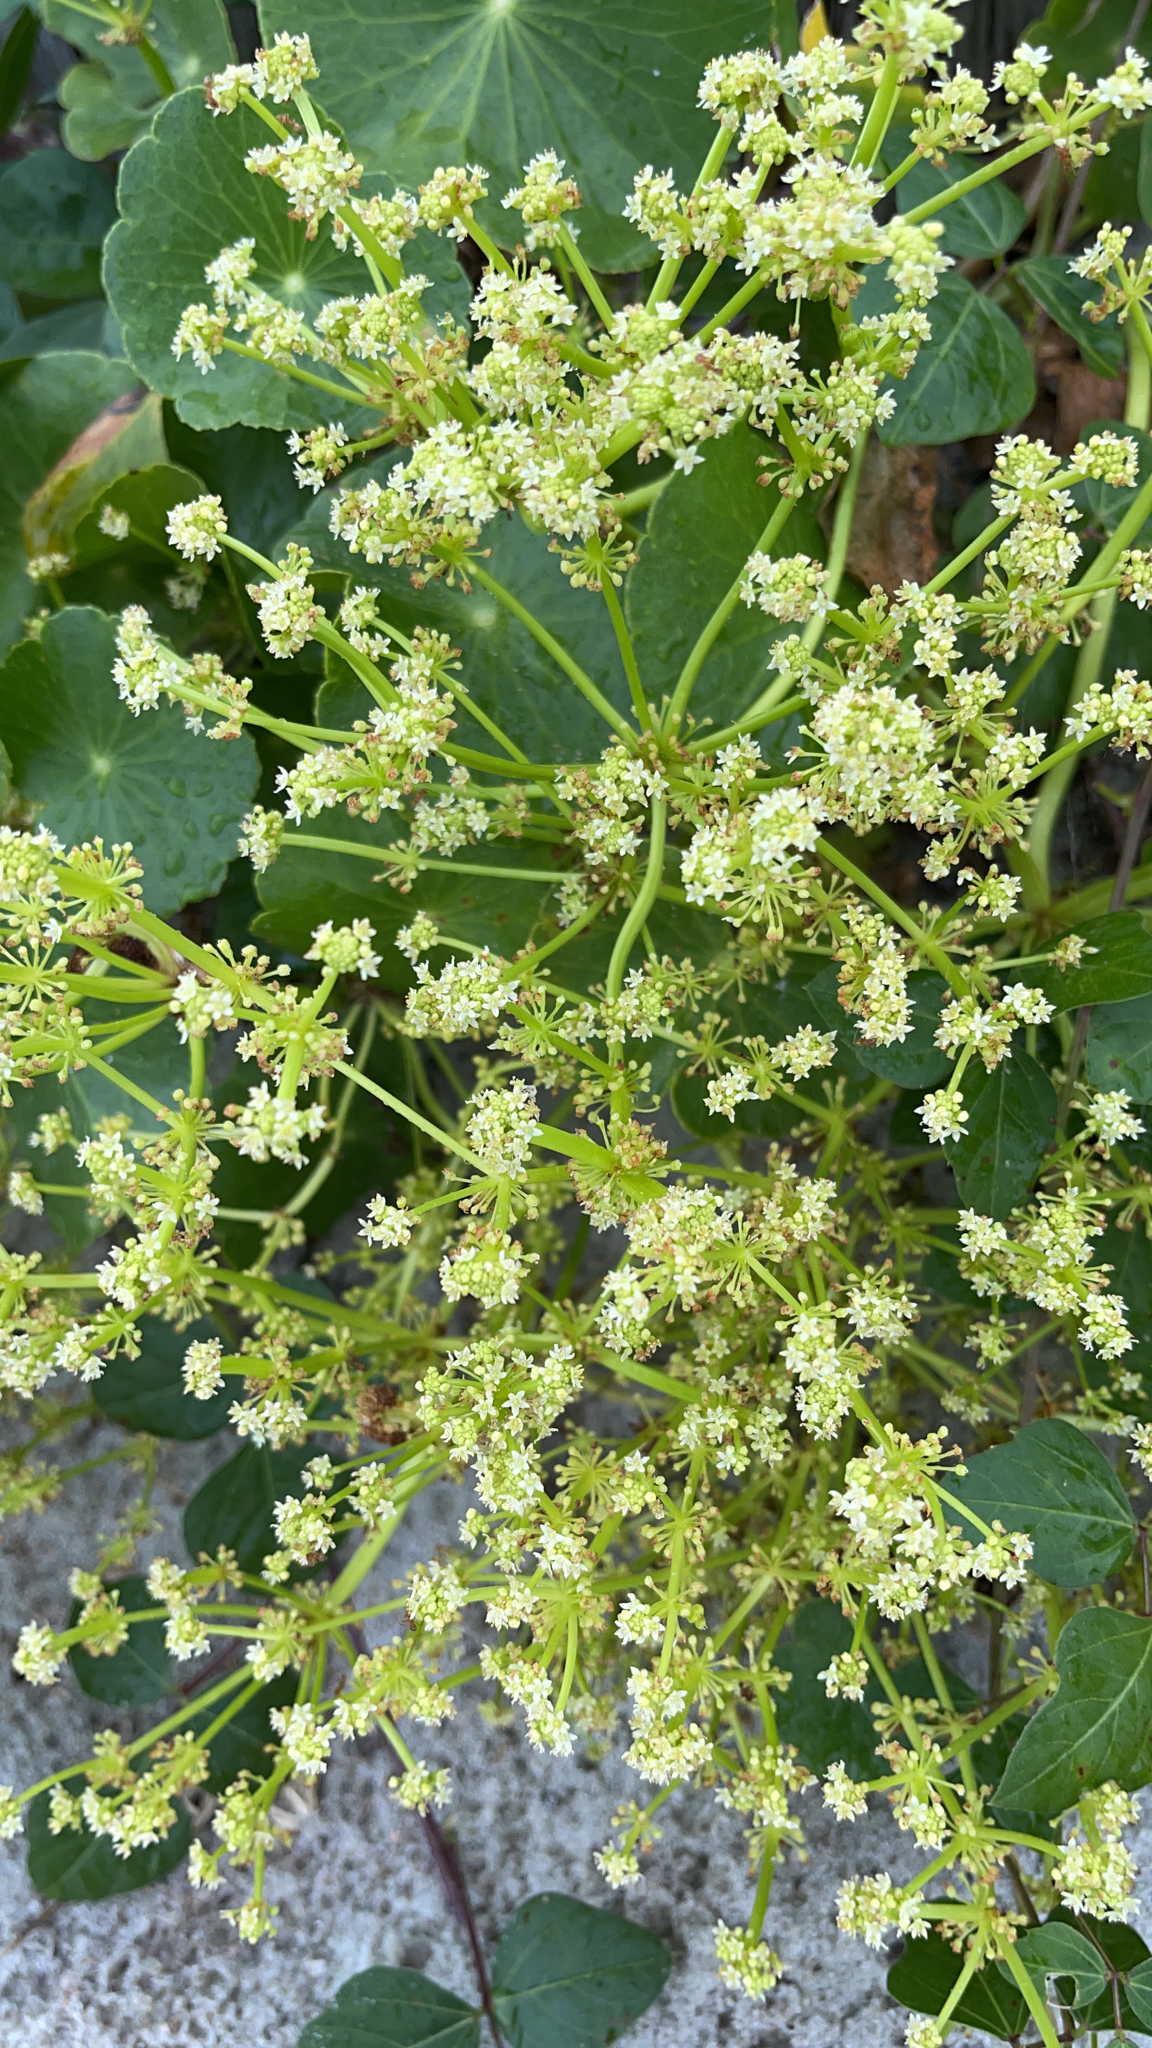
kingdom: Plantae
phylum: Tracheophyta
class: Magnoliopsida
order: Apiales
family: Araliaceae
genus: Hydrocotyle
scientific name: Hydrocotyle bonariensis
